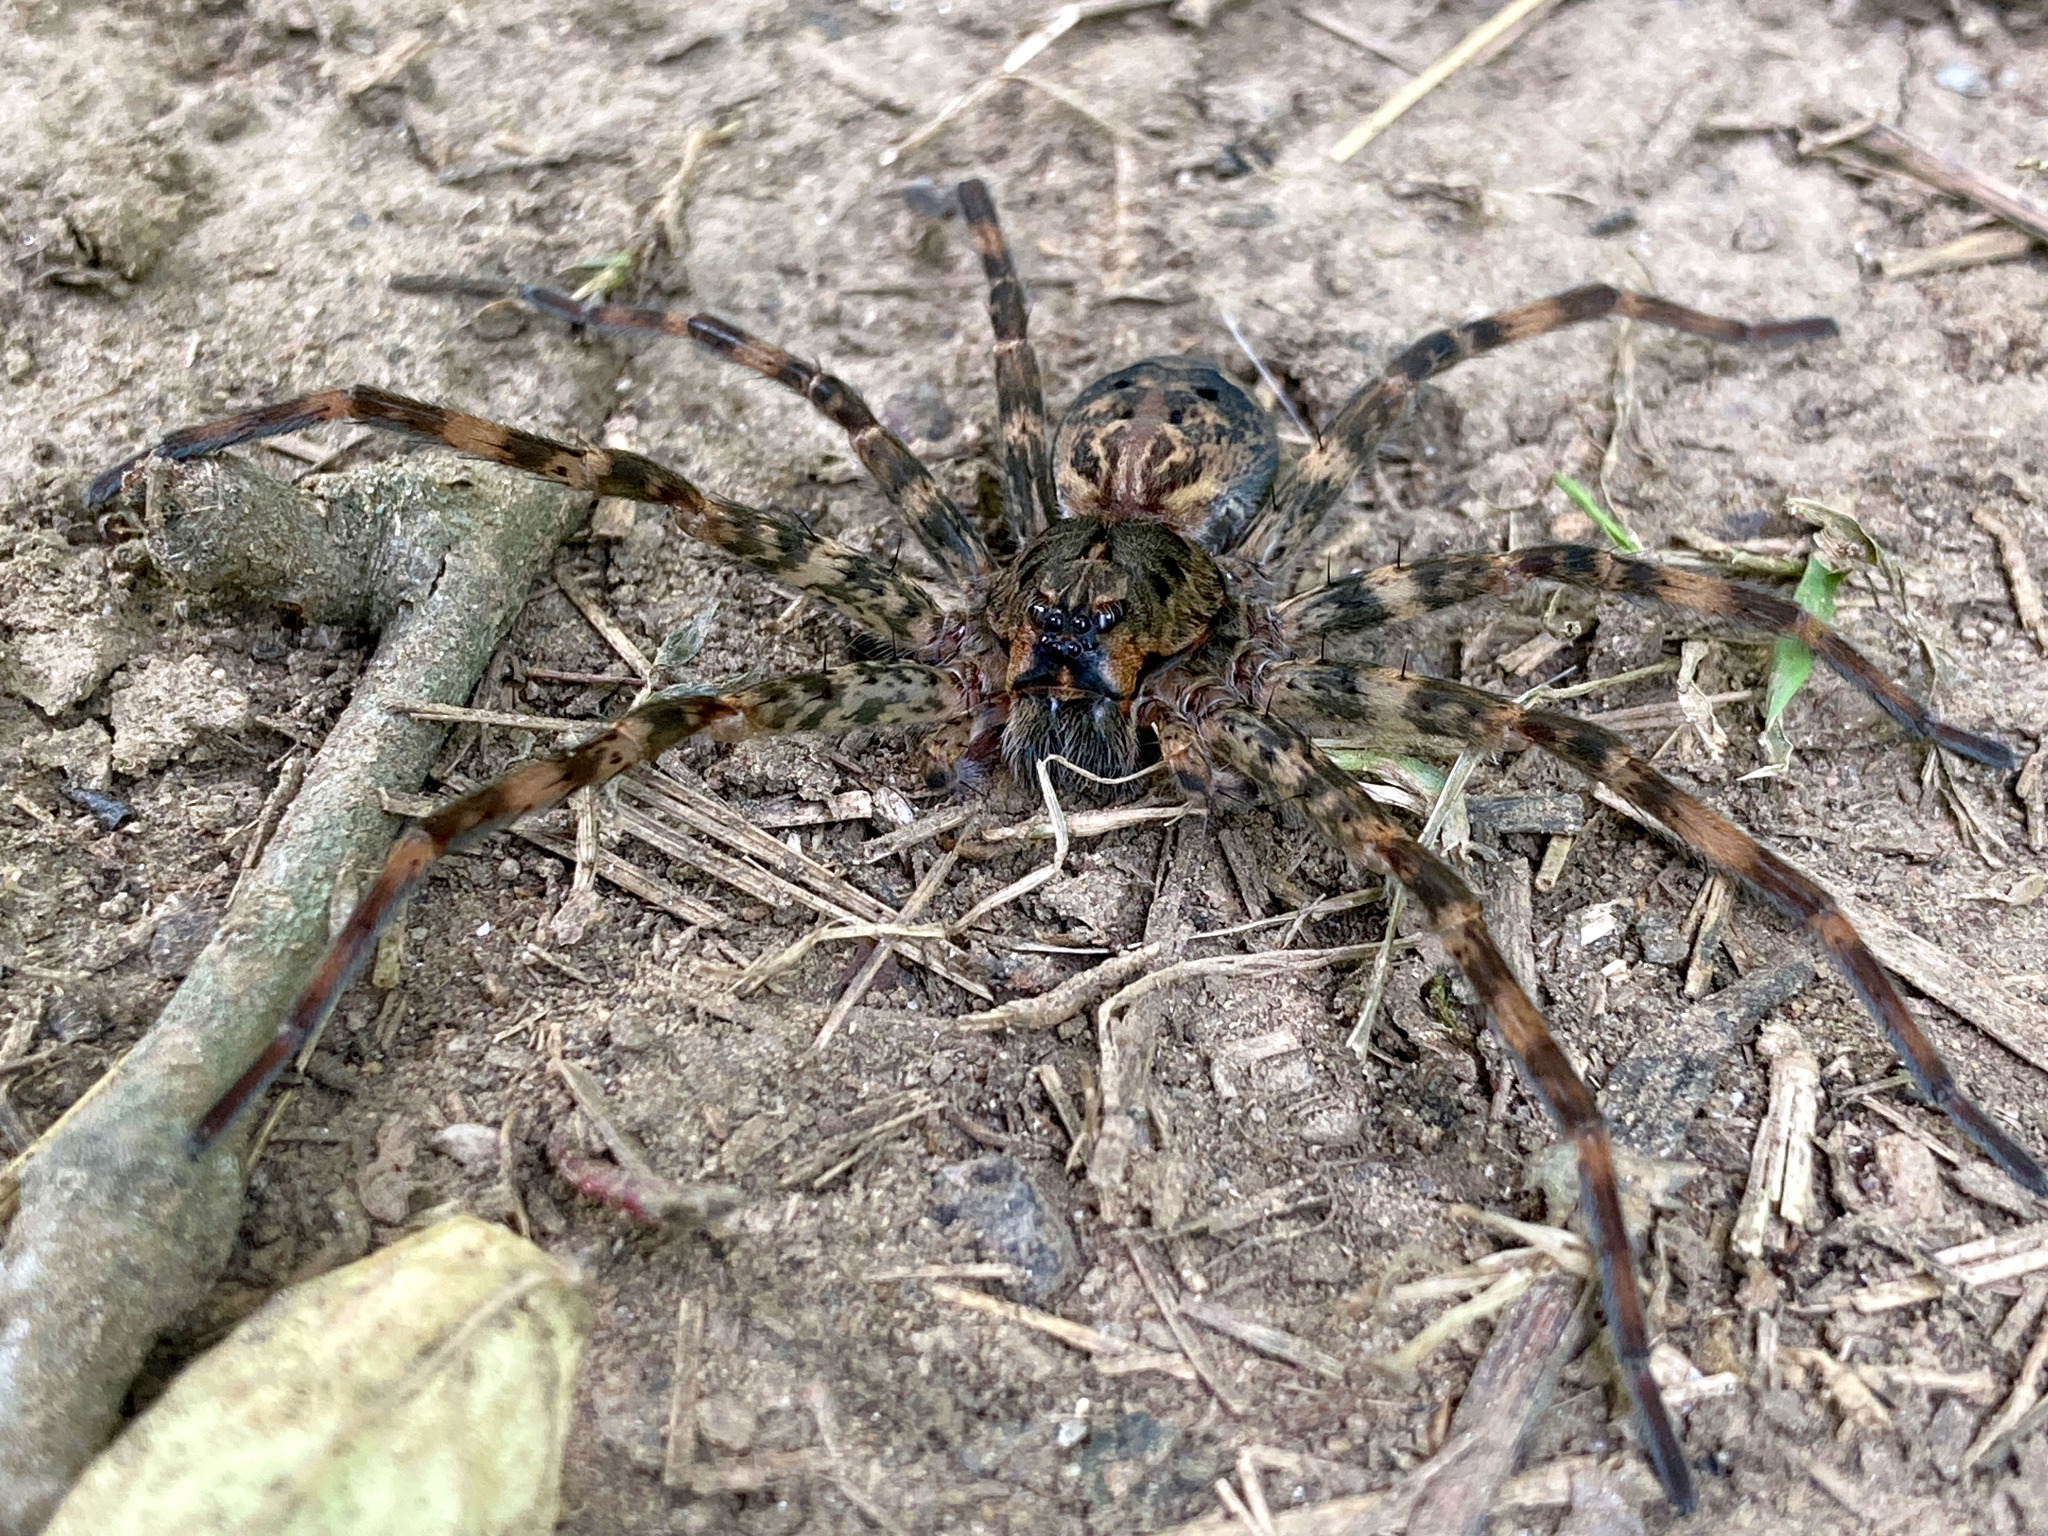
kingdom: Animalia
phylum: Arthropoda
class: Arachnida
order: Araneae
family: Pisauridae
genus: Dolomedes
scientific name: Dolomedes tenebrosus
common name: Dark fishing spider
